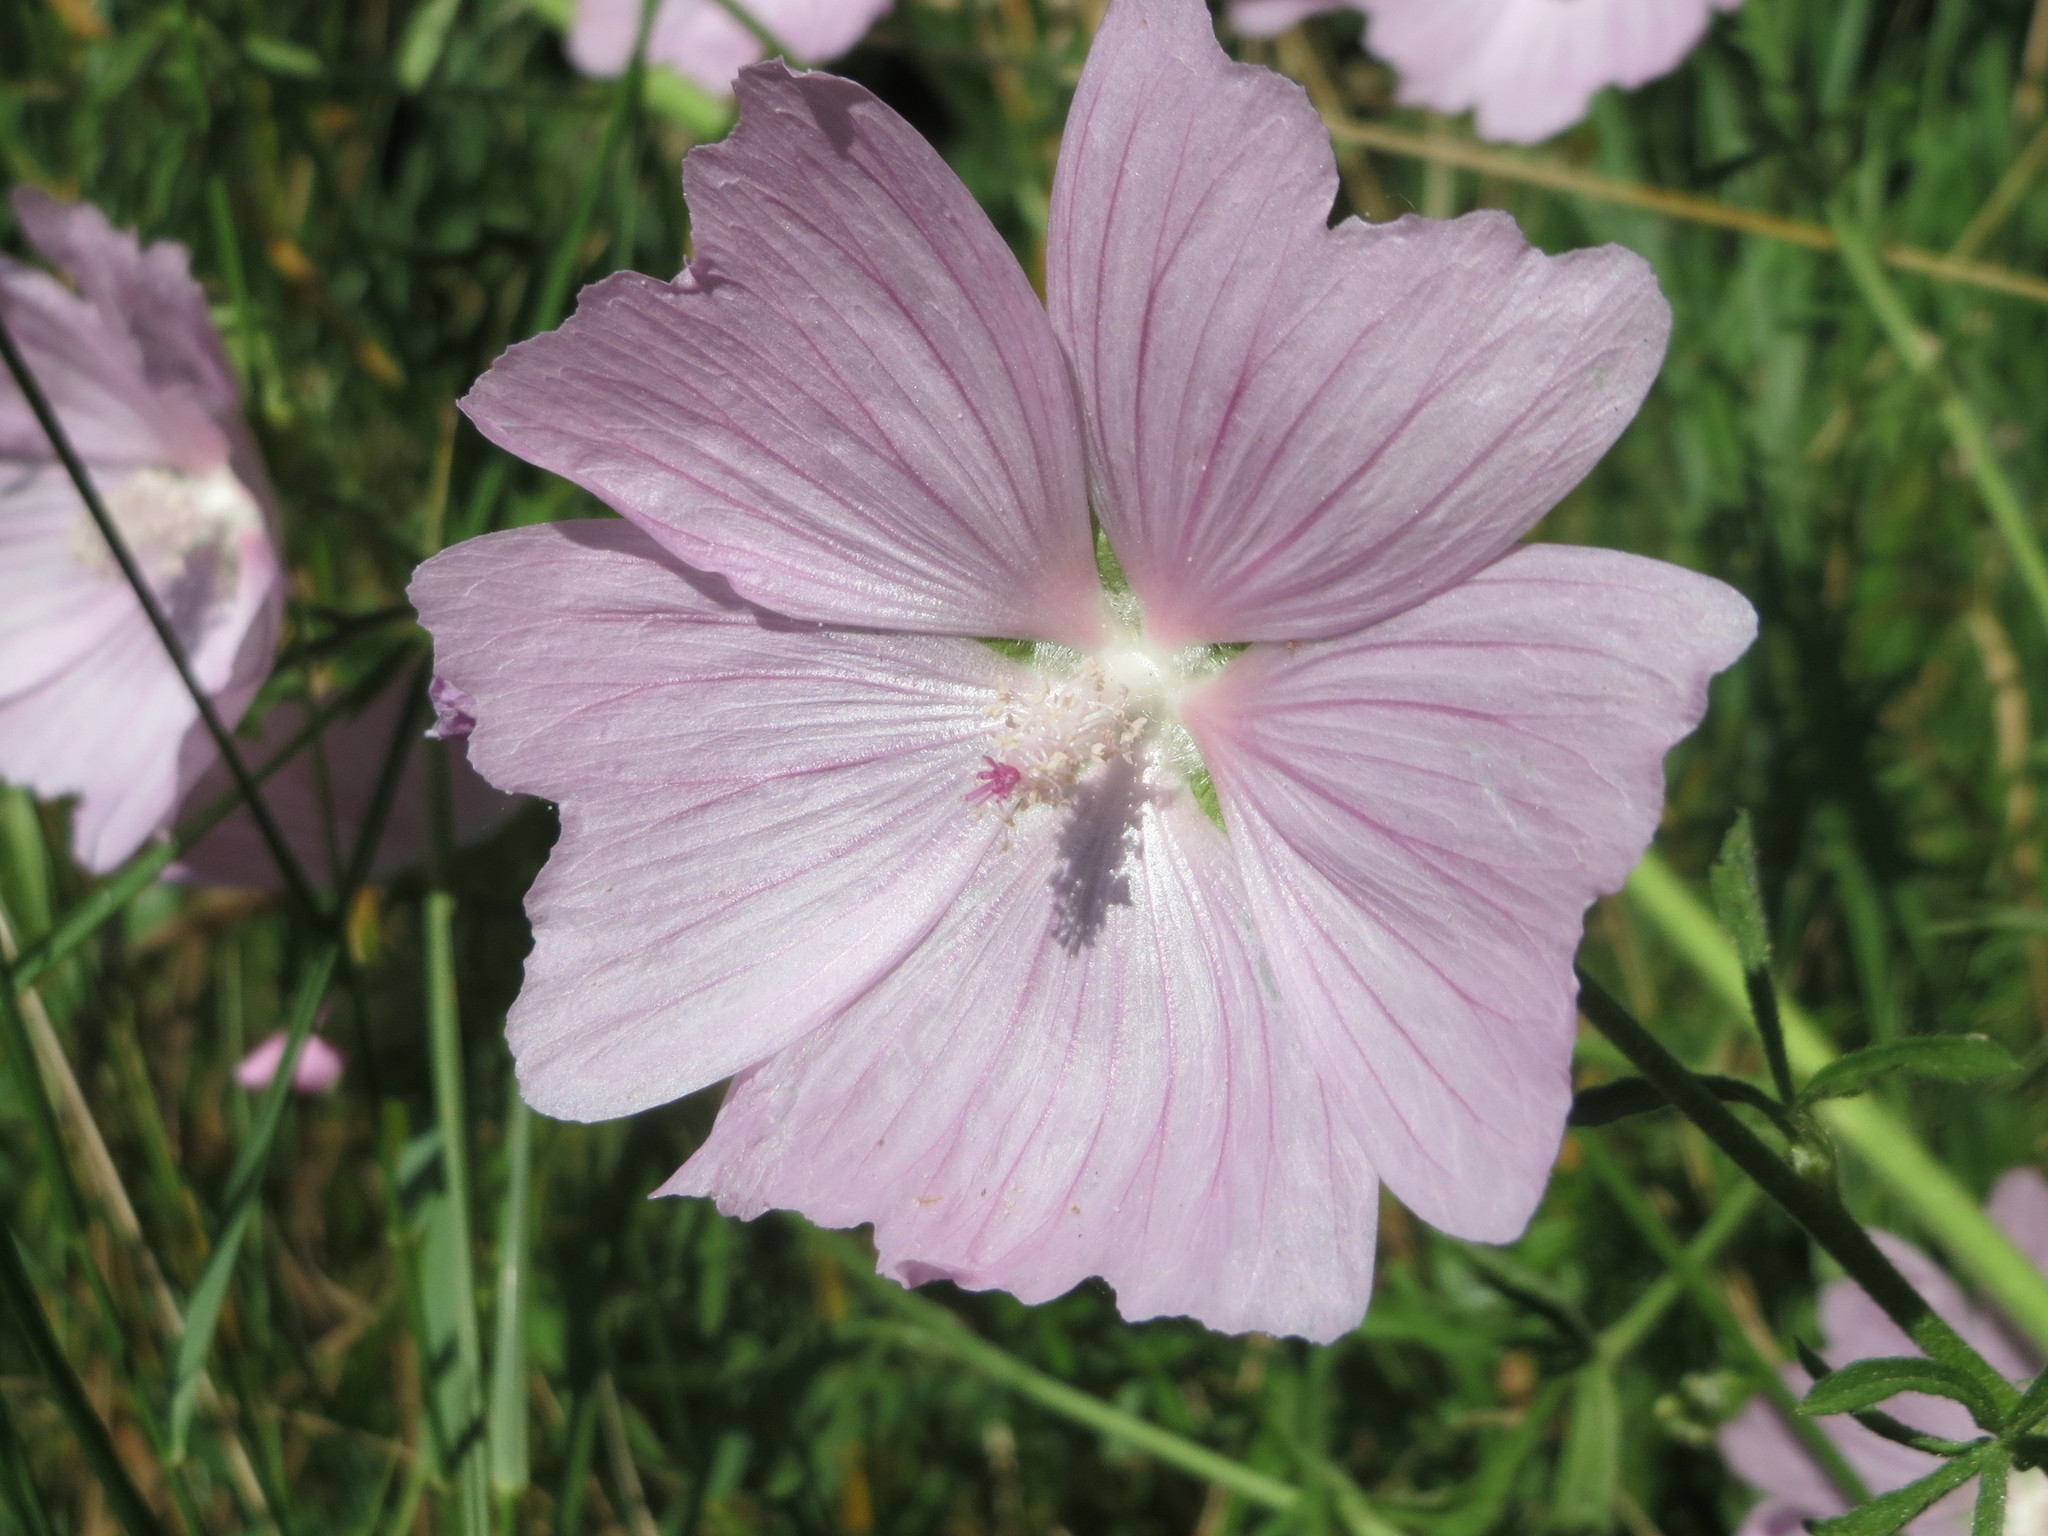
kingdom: Plantae
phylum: Tracheophyta
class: Magnoliopsida
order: Malvales
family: Malvaceae
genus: Malva
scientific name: Malva alcea
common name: Greater musk-mallow
